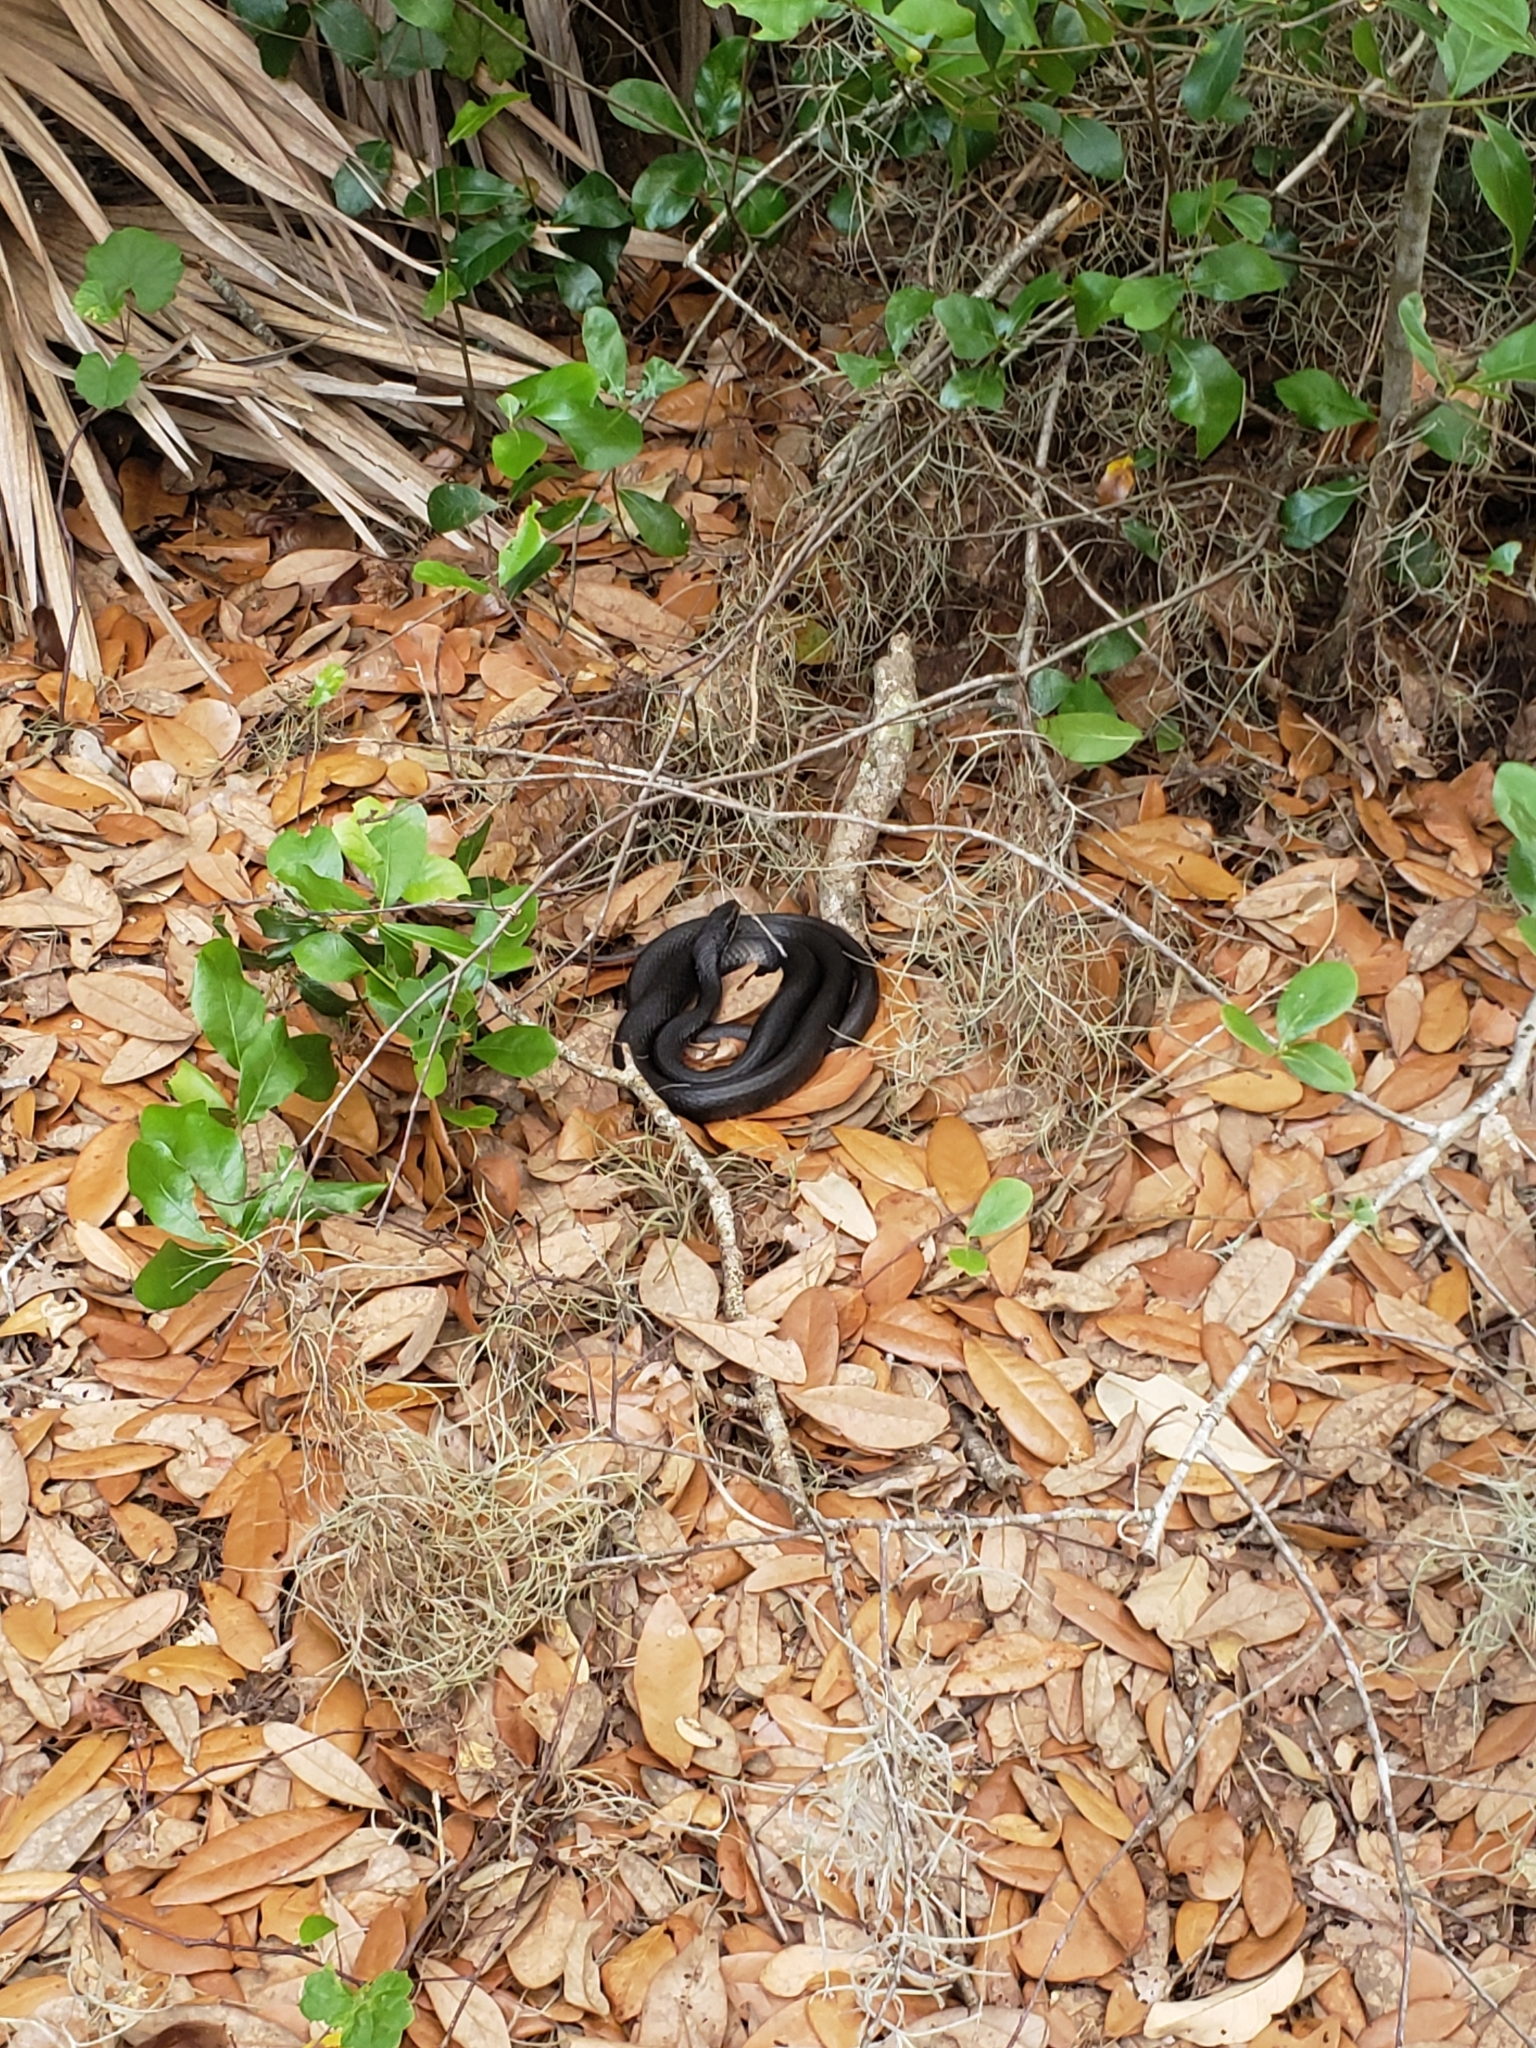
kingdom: Animalia
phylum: Chordata
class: Squamata
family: Colubridae
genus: Coluber
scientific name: Coluber constrictor
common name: Eastern racer
